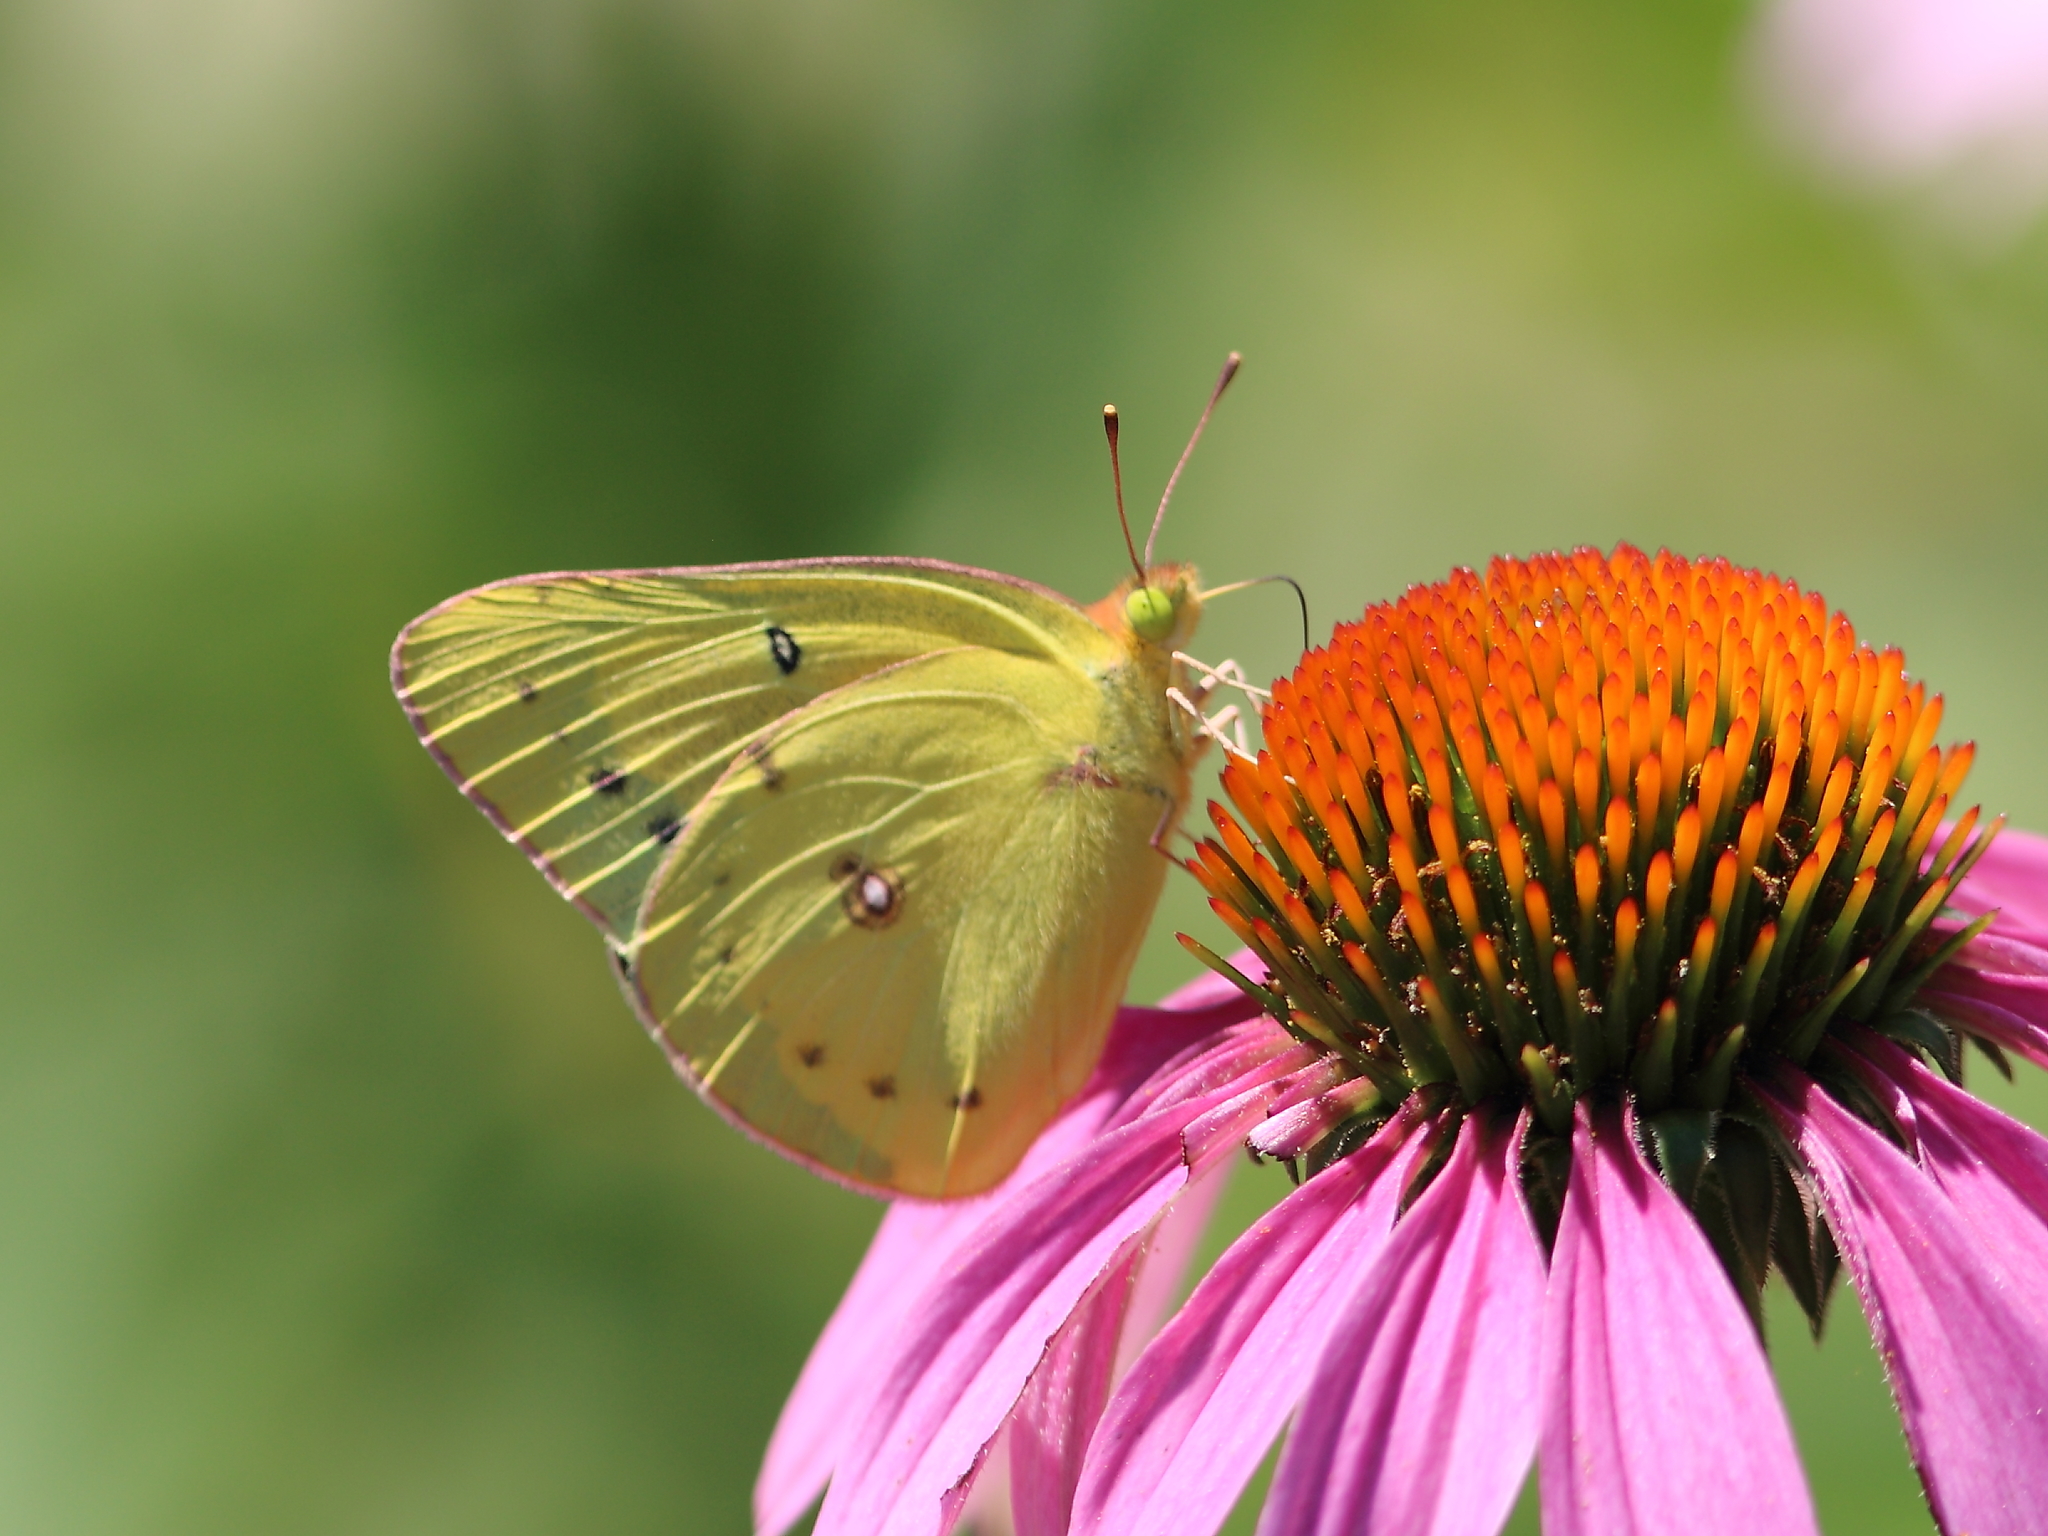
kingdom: Animalia
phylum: Arthropoda
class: Insecta
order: Lepidoptera
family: Pieridae
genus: Colias
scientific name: Colias philodice
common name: Clouded sulphur
